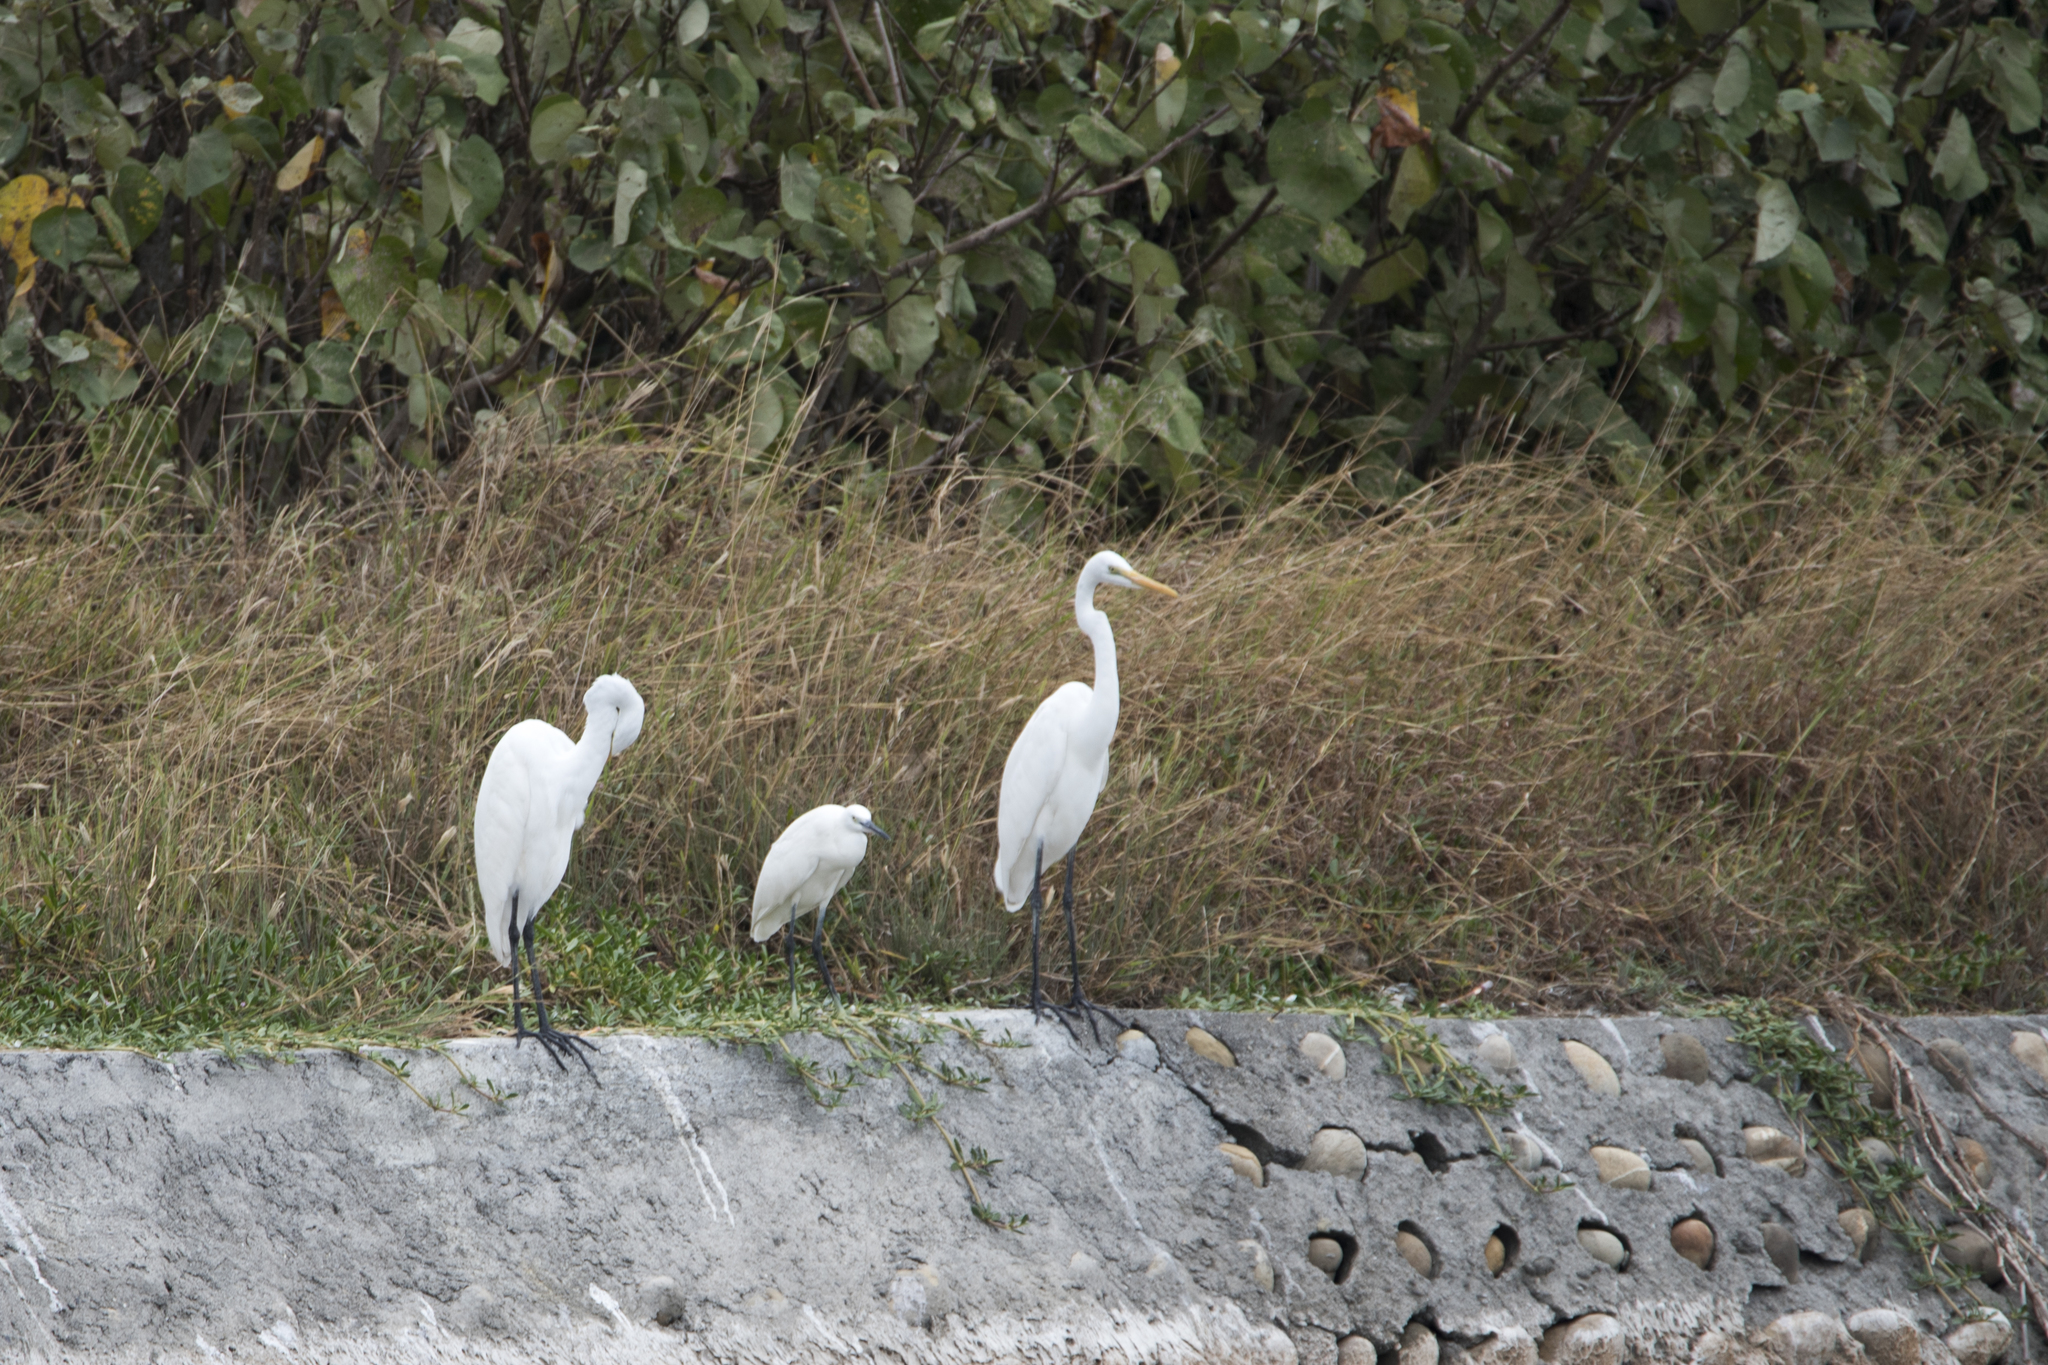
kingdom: Animalia
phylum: Chordata
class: Aves
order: Pelecaniformes
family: Ardeidae
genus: Ardea
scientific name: Ardea modesta
